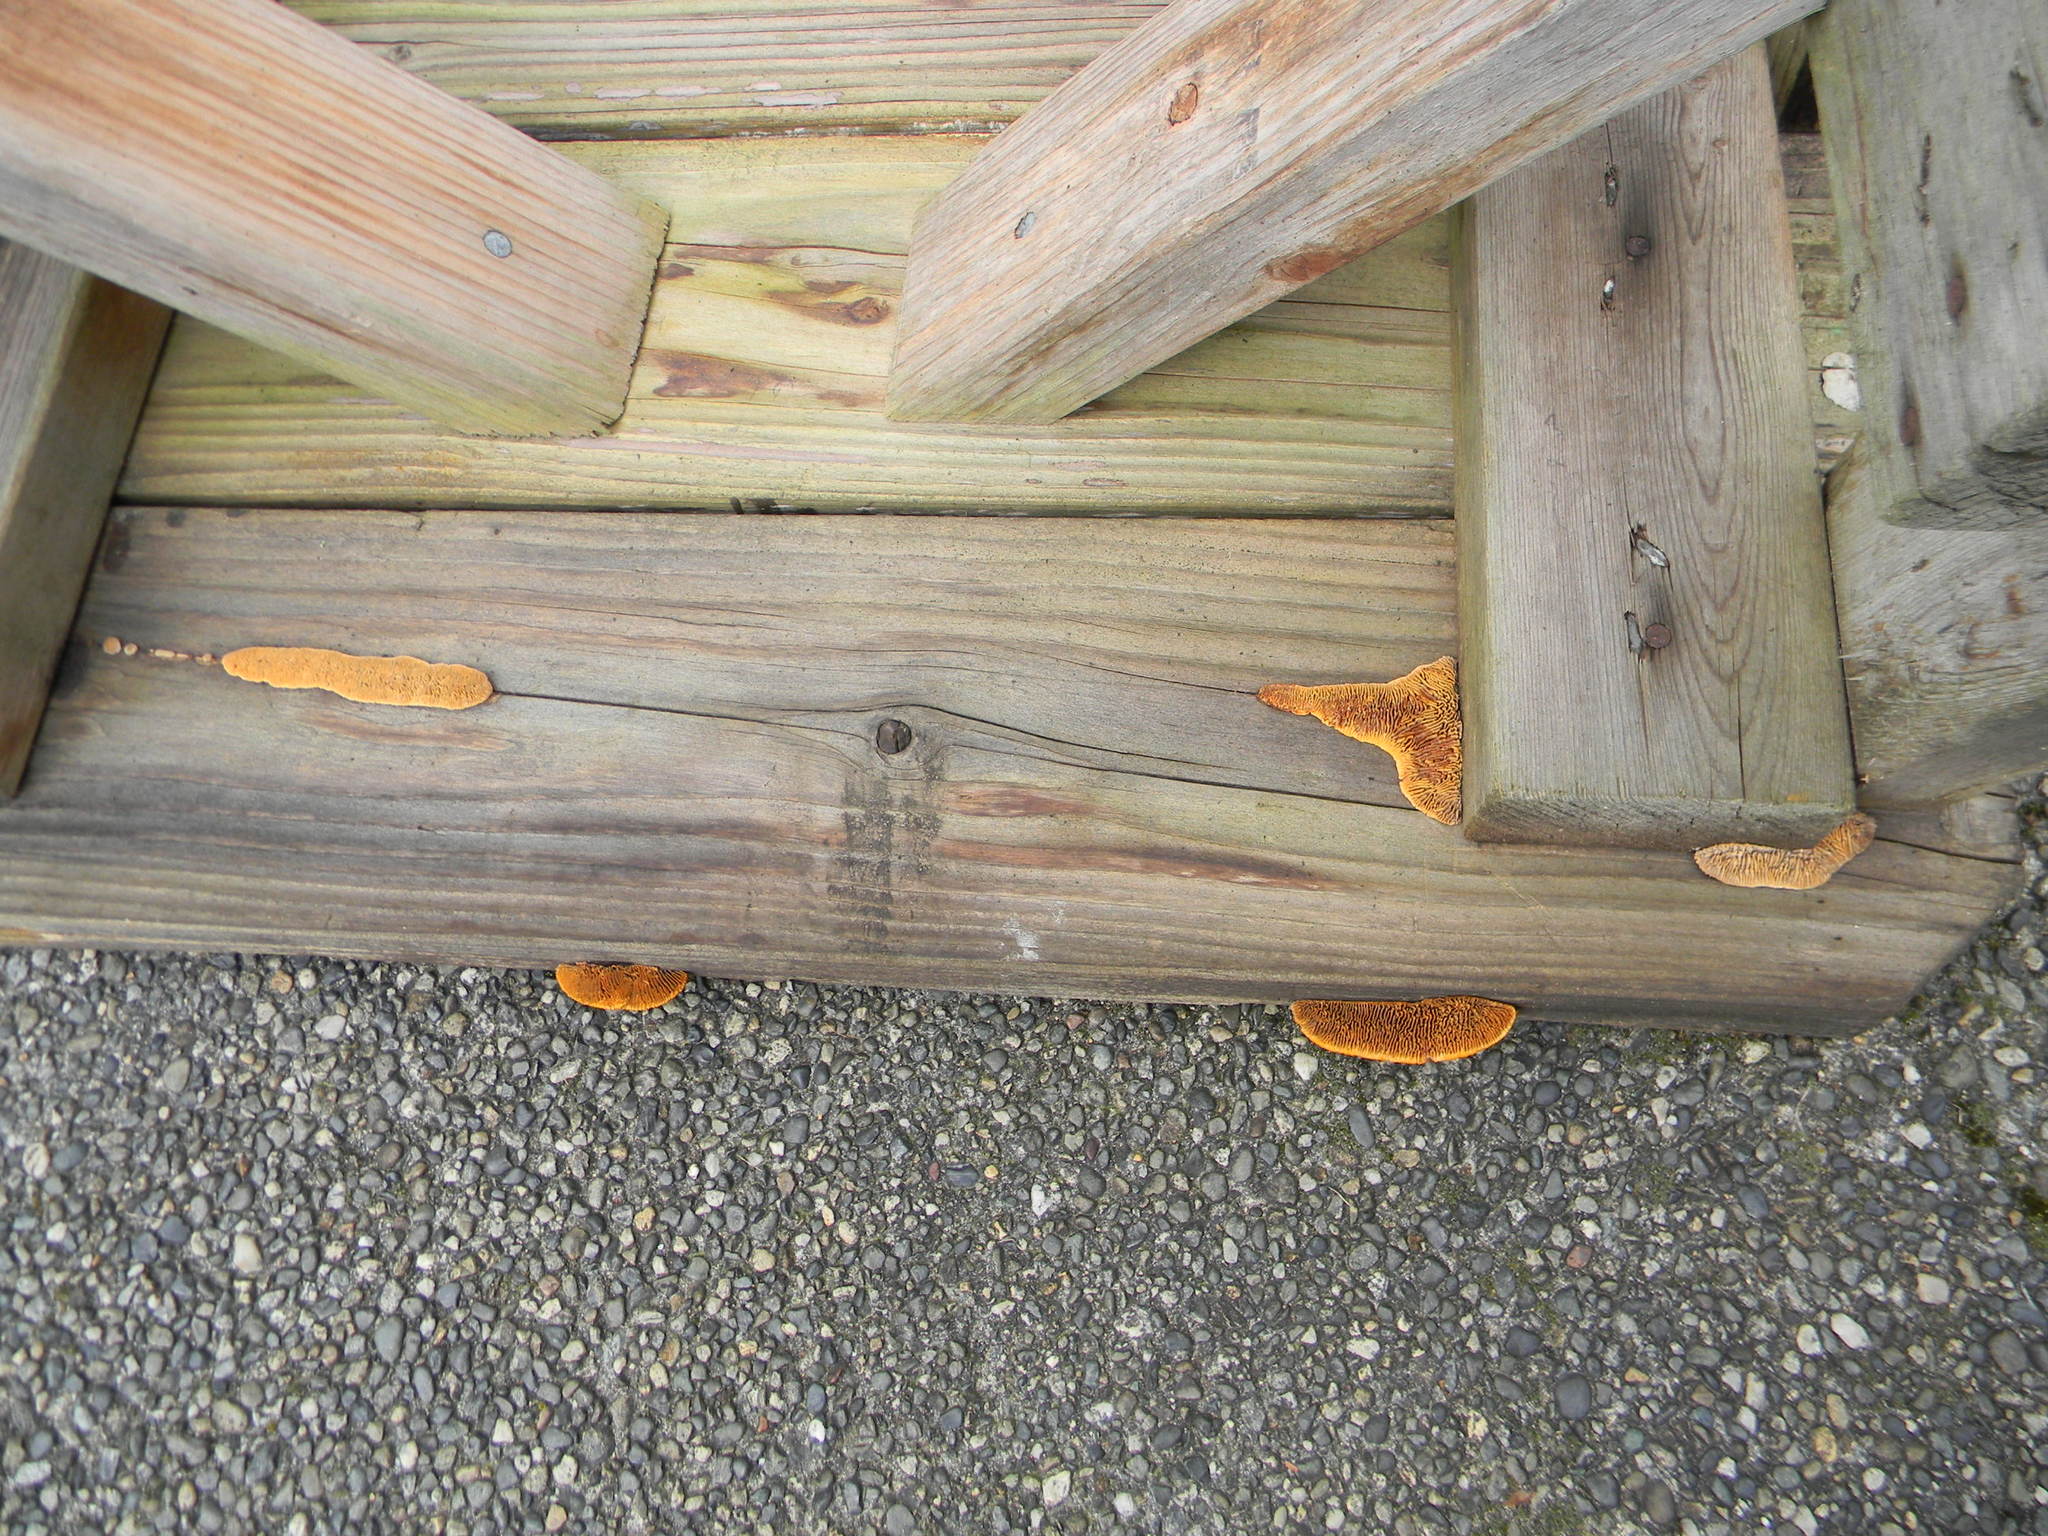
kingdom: Fungi
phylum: Basidiomycota
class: Agaricomycetes
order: Gloeophyllales
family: Gloeophyllaceae
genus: Gloeophyllum
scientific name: Gloeophyllum sepiarium
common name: Conifer mazegill
